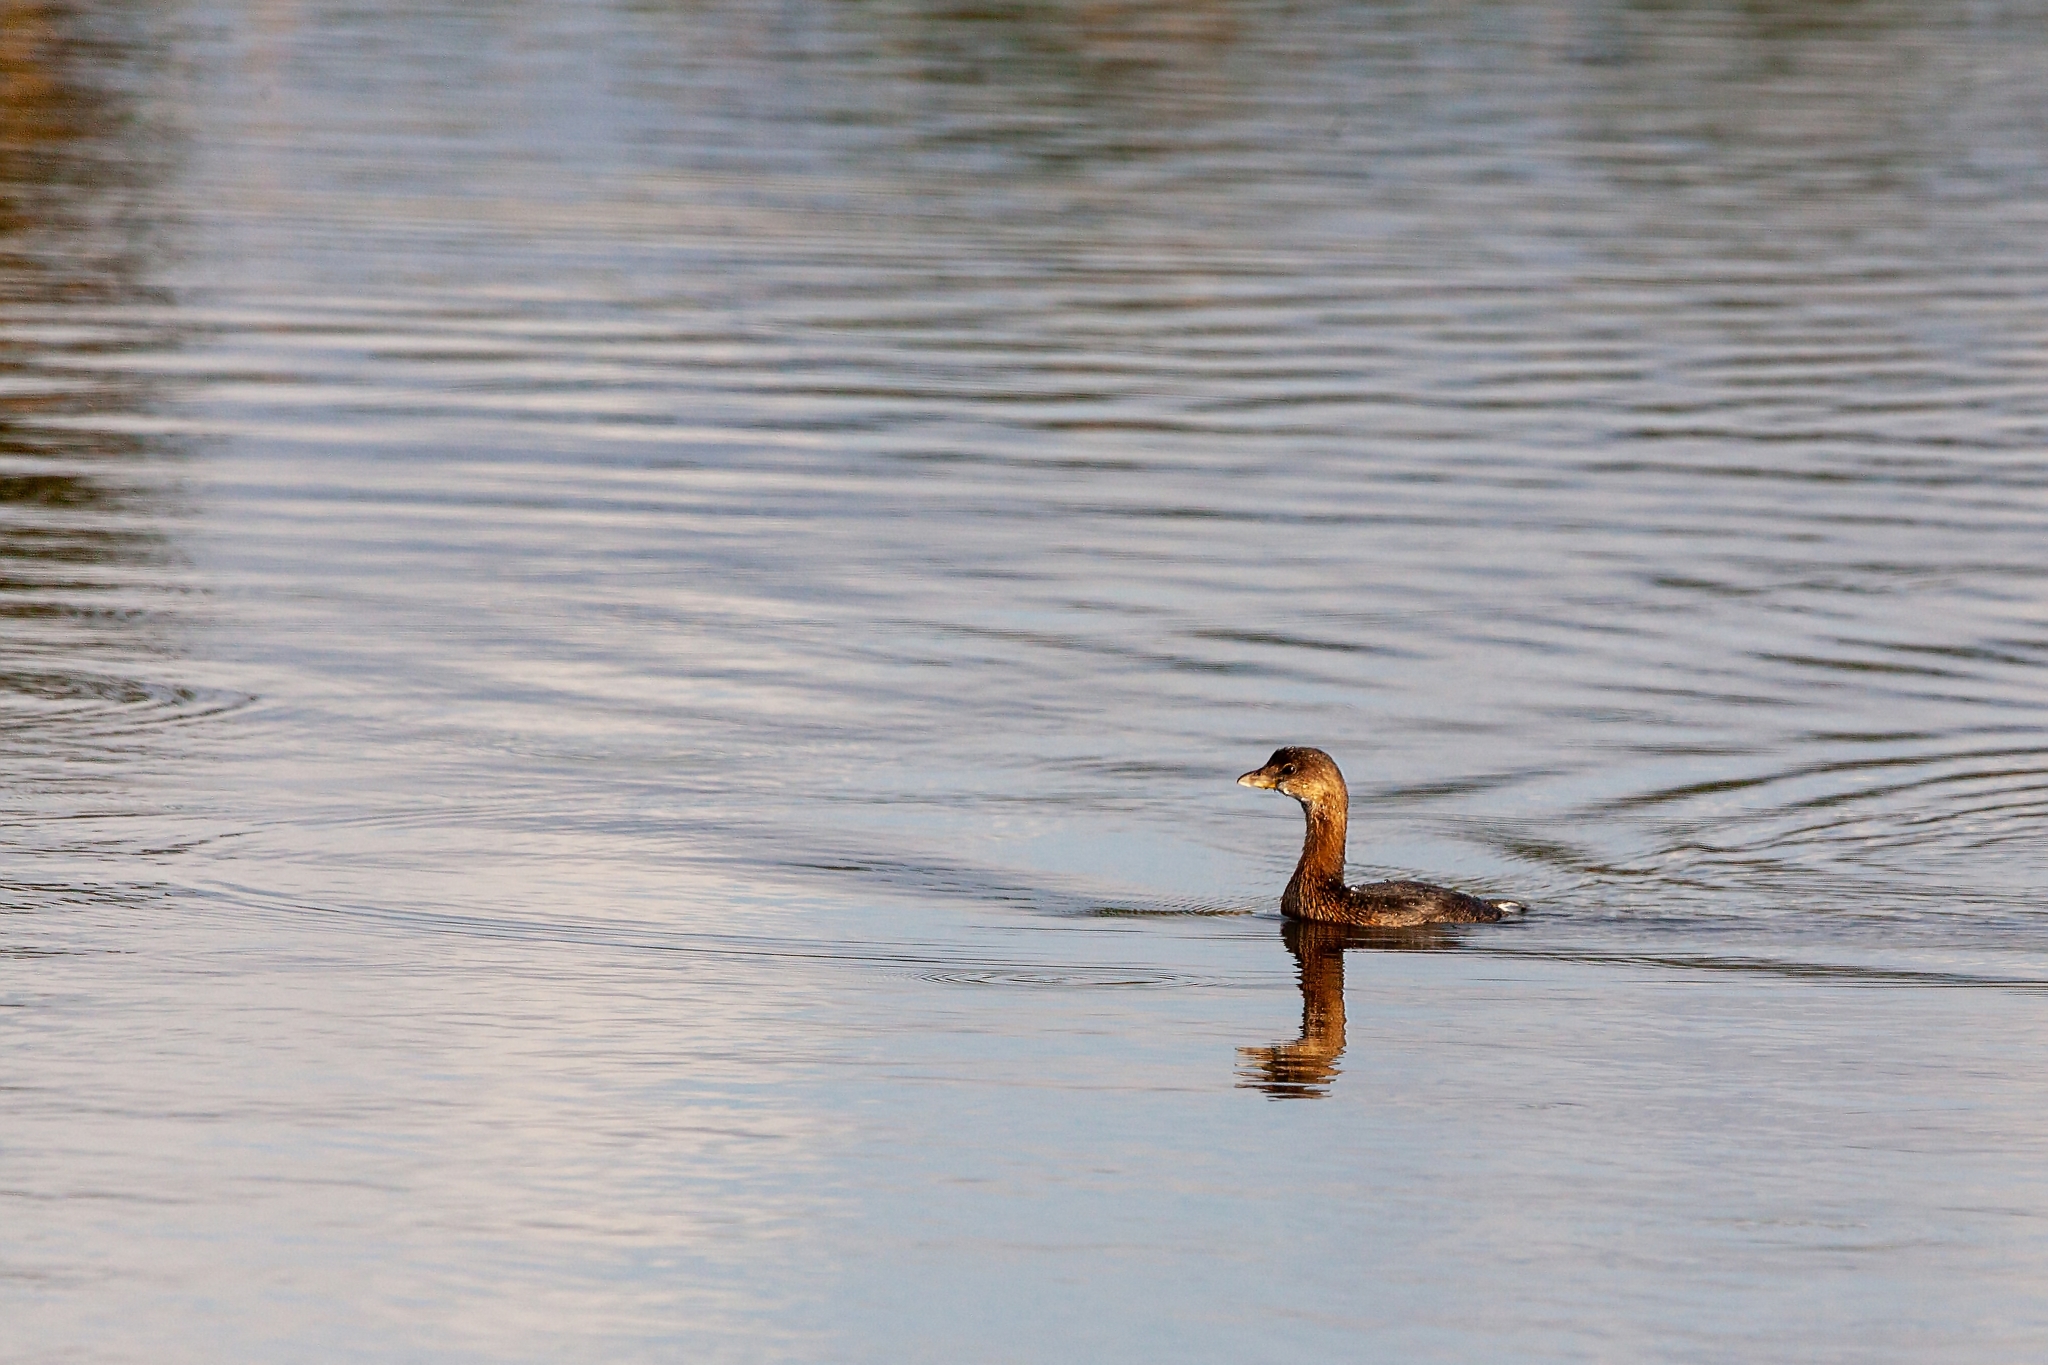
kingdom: Animalia
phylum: Chordata
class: Aves
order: Podicipediformes
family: Podicipedidae
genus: Podilymbus
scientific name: Podilymbus podiceps
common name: Pied-billed grebe
